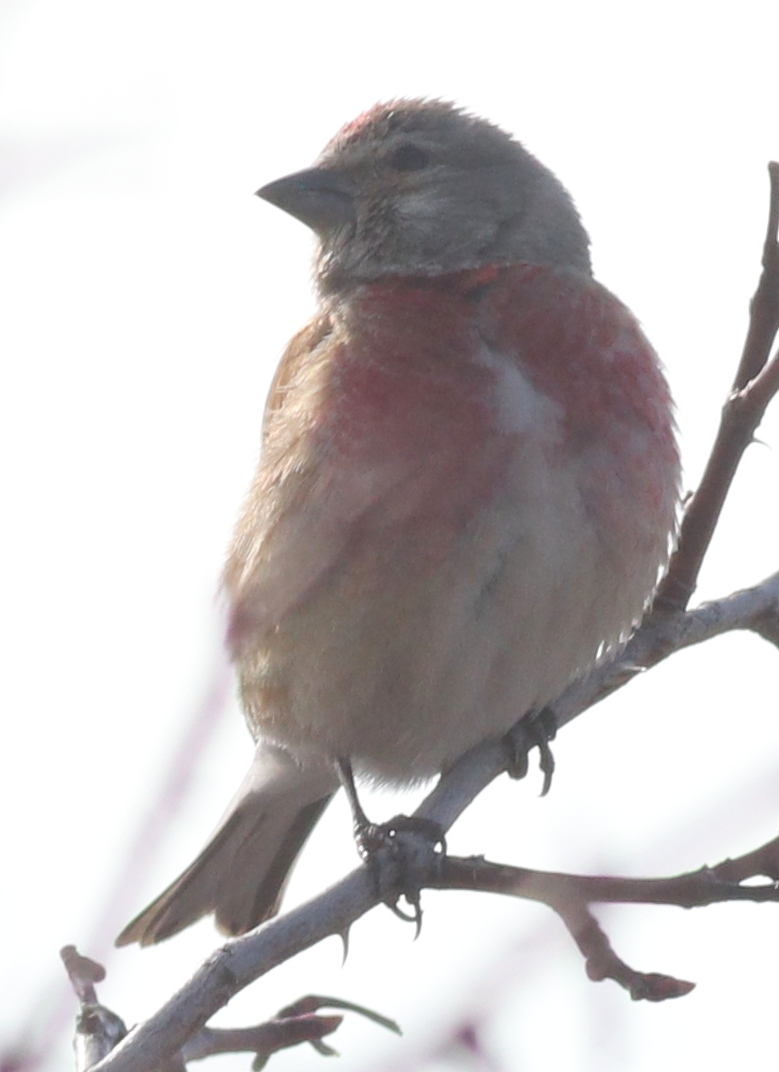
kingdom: Animalia
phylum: Chordata
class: Aves
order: Passeriformes
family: Fringillidae
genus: Linaria
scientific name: Linaria cannabina
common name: Common linnet
